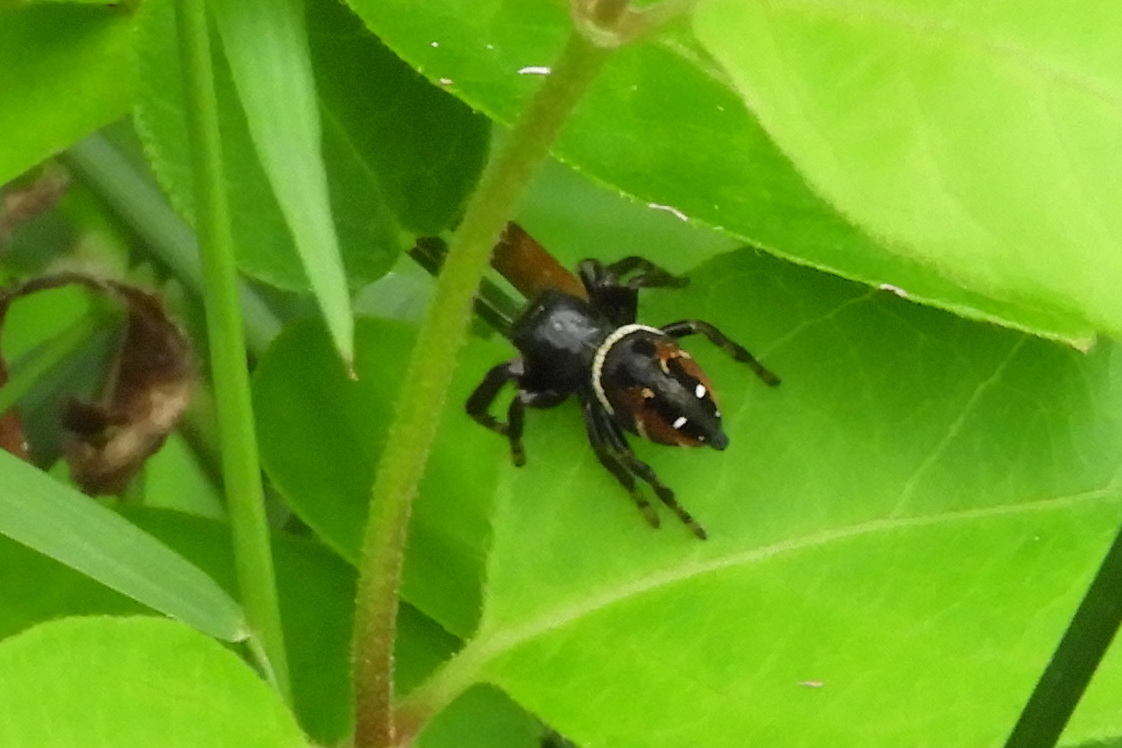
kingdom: Animalia
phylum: Arthropoda
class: Arachnida
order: Araneae
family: Salticidae
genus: Phidippus
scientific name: Phidippus clarus
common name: Brilliant jumping spider
